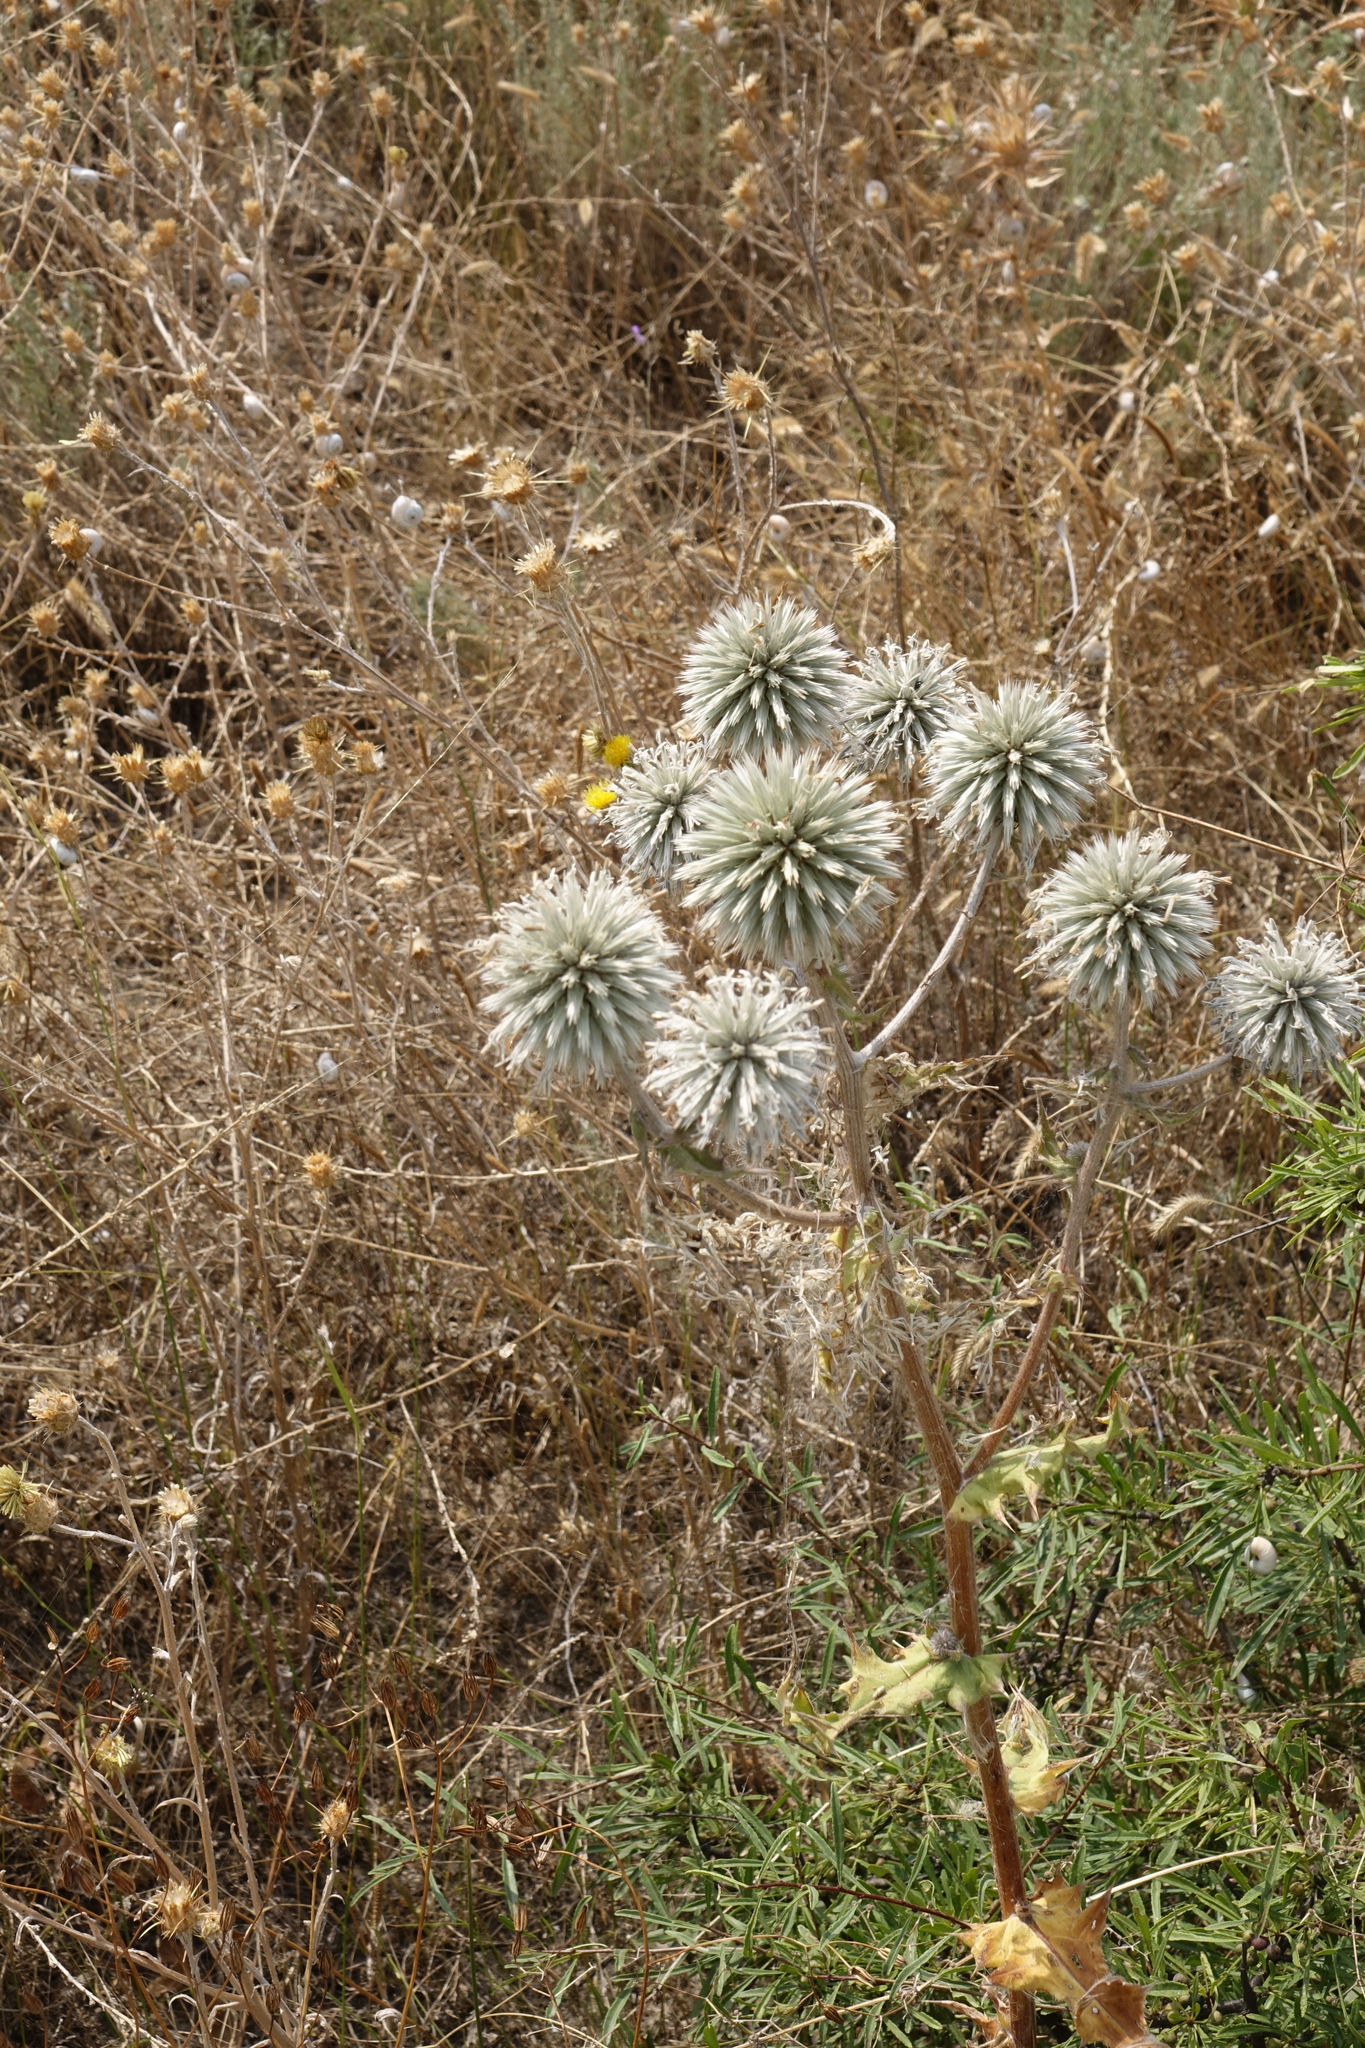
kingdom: Plantae
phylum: Tracheophyta
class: Magnoliopsida
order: Asterales
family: Asteraceae
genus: Echinops
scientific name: Echinops sphaerocephalus
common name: Glandular globe-thistle
